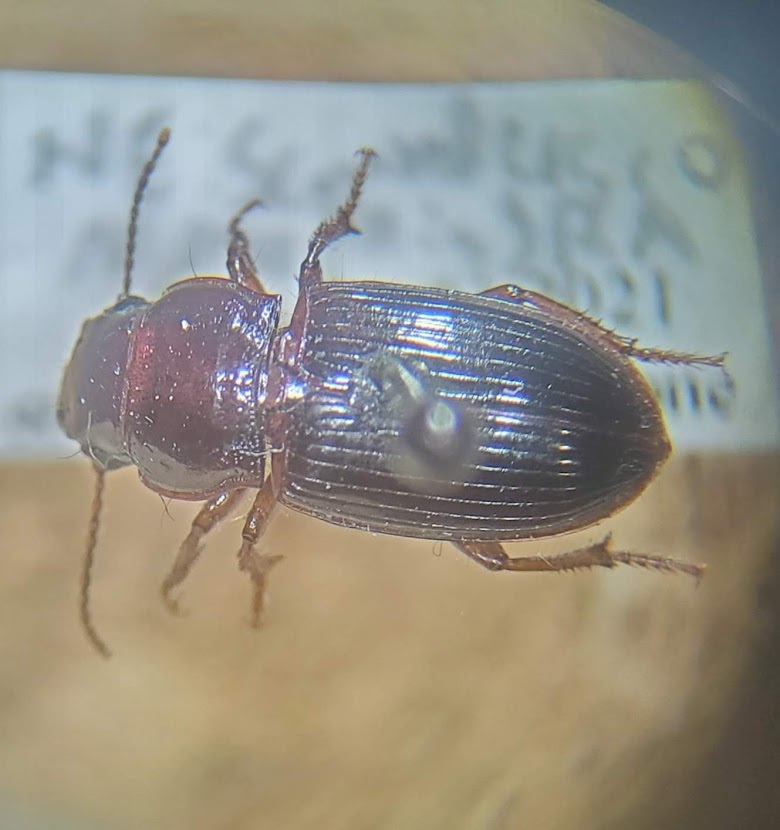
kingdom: Animalia
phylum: Arthropoda
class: Insecta
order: Coleoptera
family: Carabidae
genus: Cratacanthus
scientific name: Cratacanthus dubius
